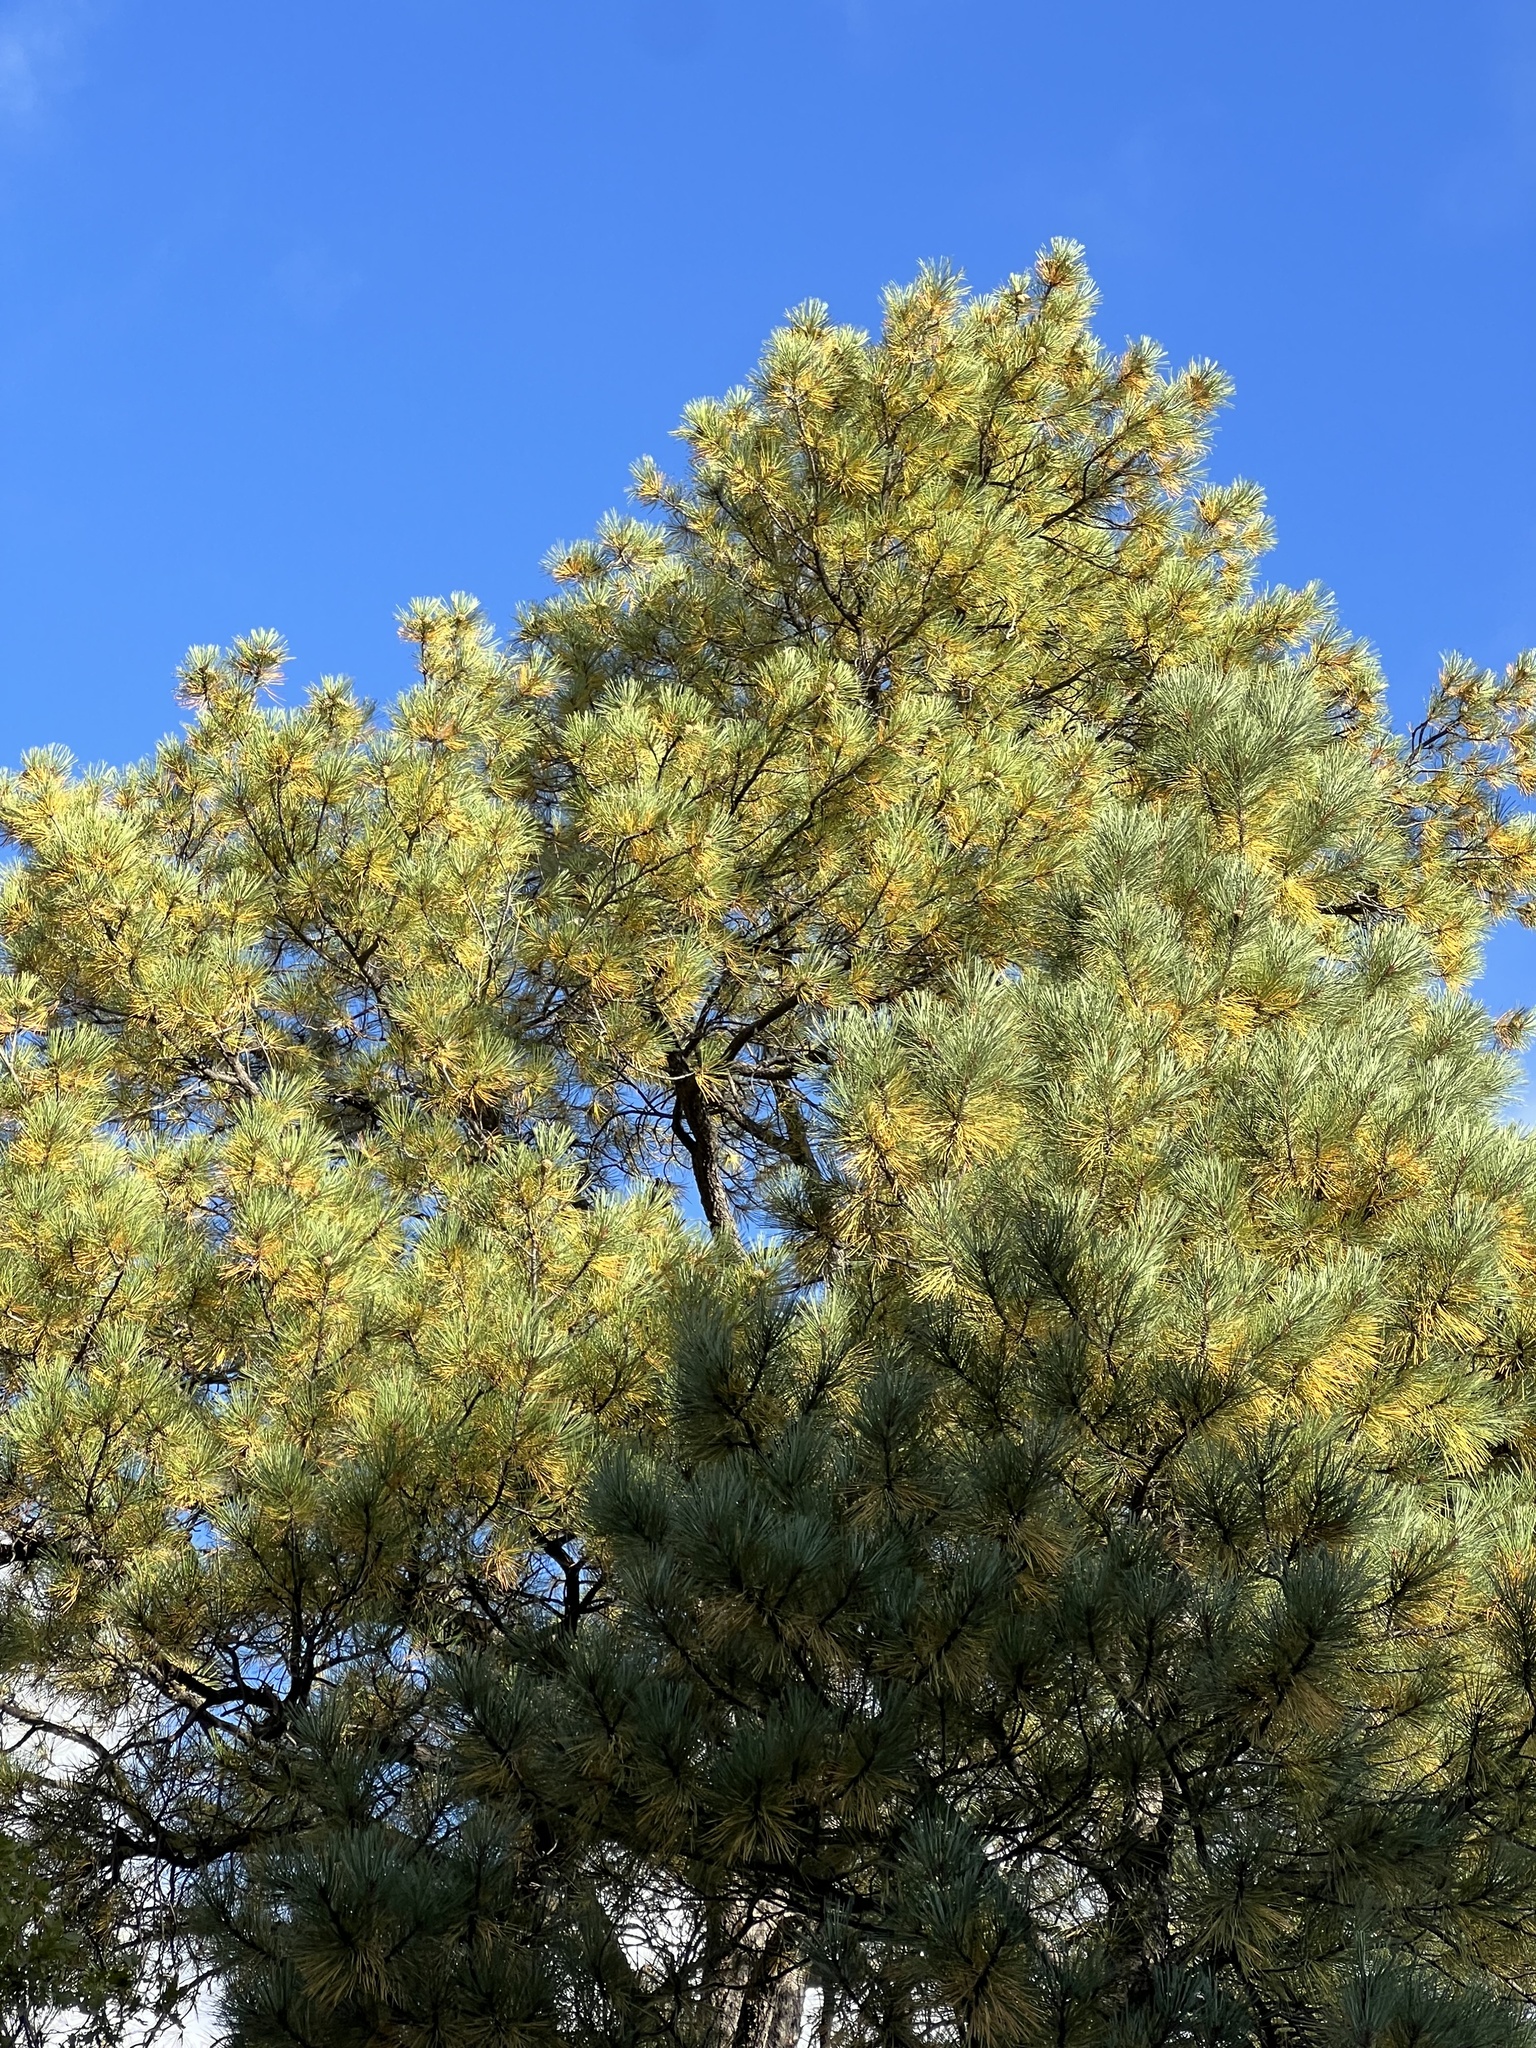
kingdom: Plantae
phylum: Tracheophyta
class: Pinopsida
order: Pinales
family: Pinaceae
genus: Pinus
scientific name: Pinus ponderosa
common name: Western yellow-pine
